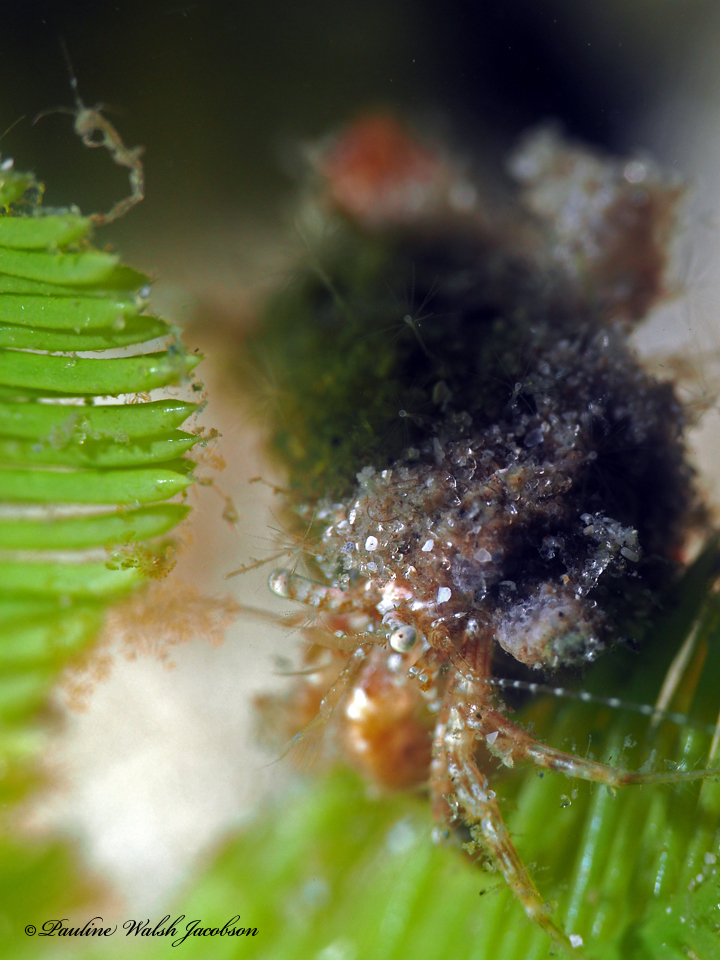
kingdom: Animalia
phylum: Arthropoda
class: Malacostraca
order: Decapoda
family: Paguridae
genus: Pagurus
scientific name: Pagurus maclaughlinae
